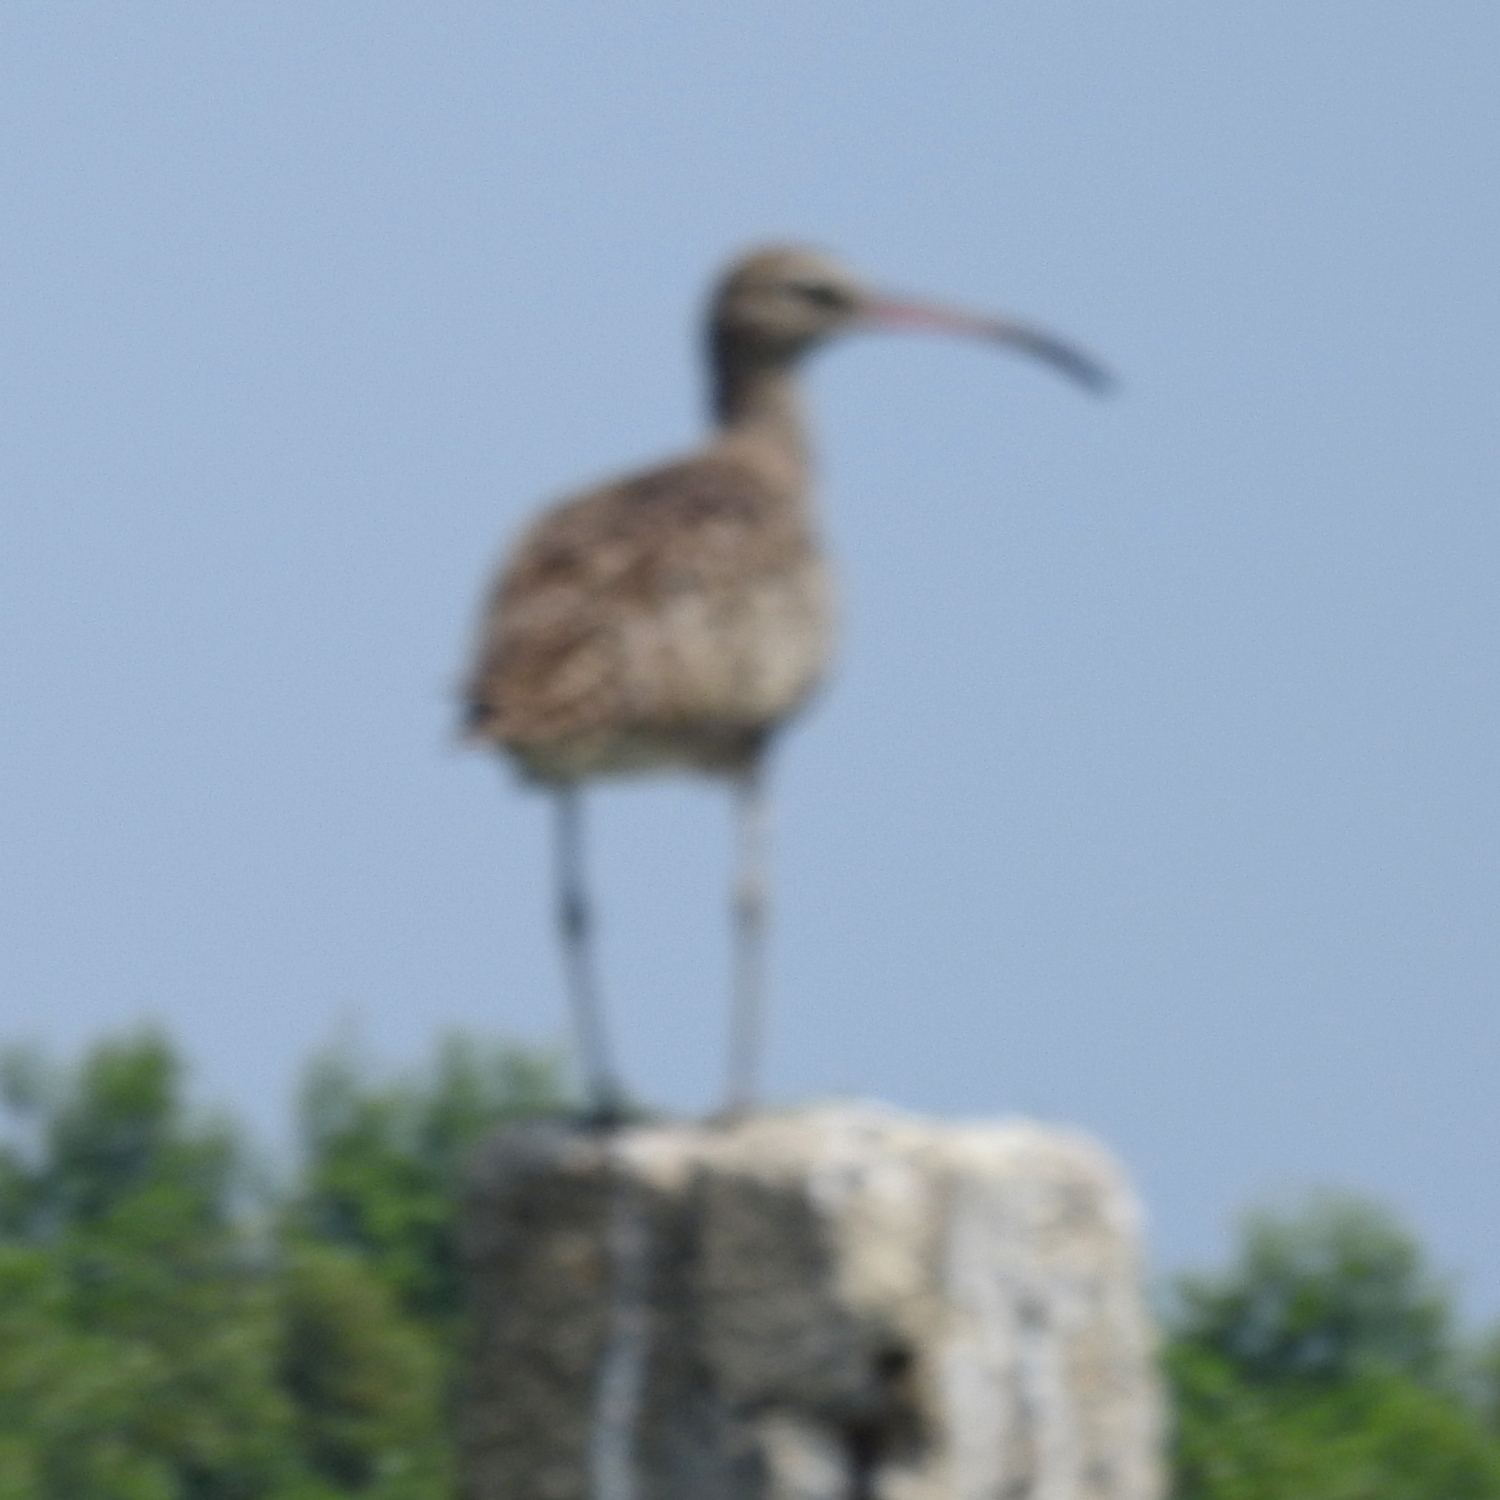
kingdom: Animalia
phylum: Chordata
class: Aves
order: Charadriiformes
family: Scolopacidae
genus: Numenius
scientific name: Numenius phaeopus
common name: Whimbrel
